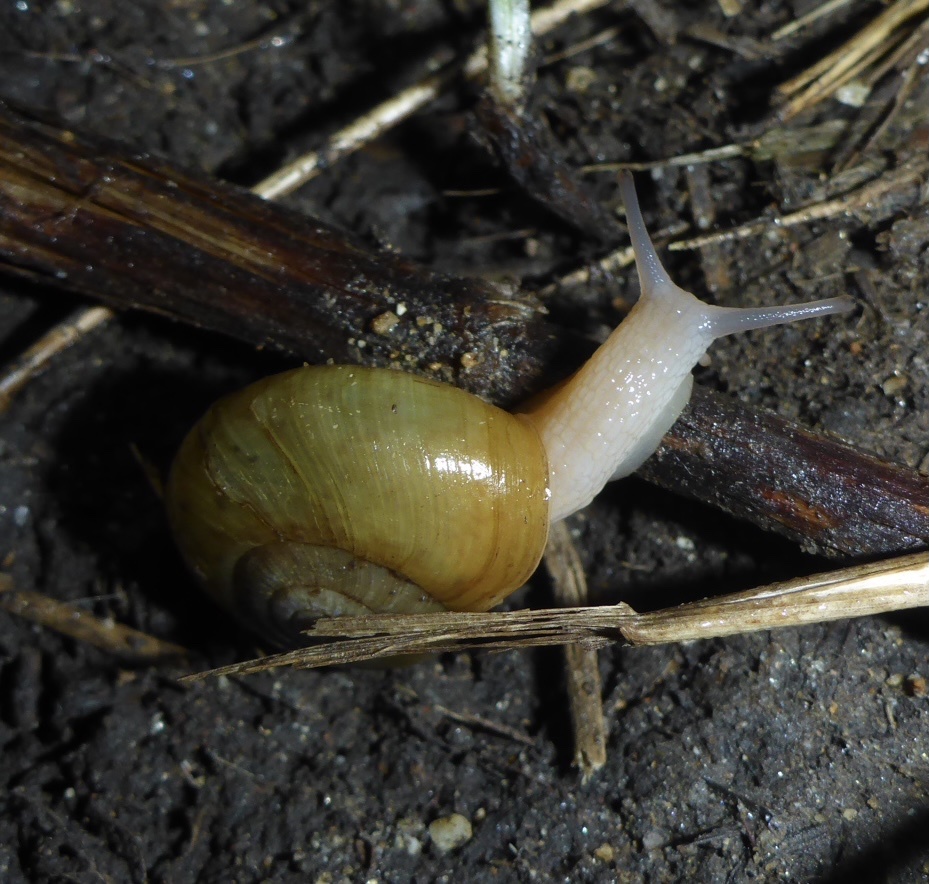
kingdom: Animalia
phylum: Mollusca
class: Gastropoda
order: Stylommatophora
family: Haplotrematidae
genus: Haplotrema
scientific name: Haplotrema minimum
